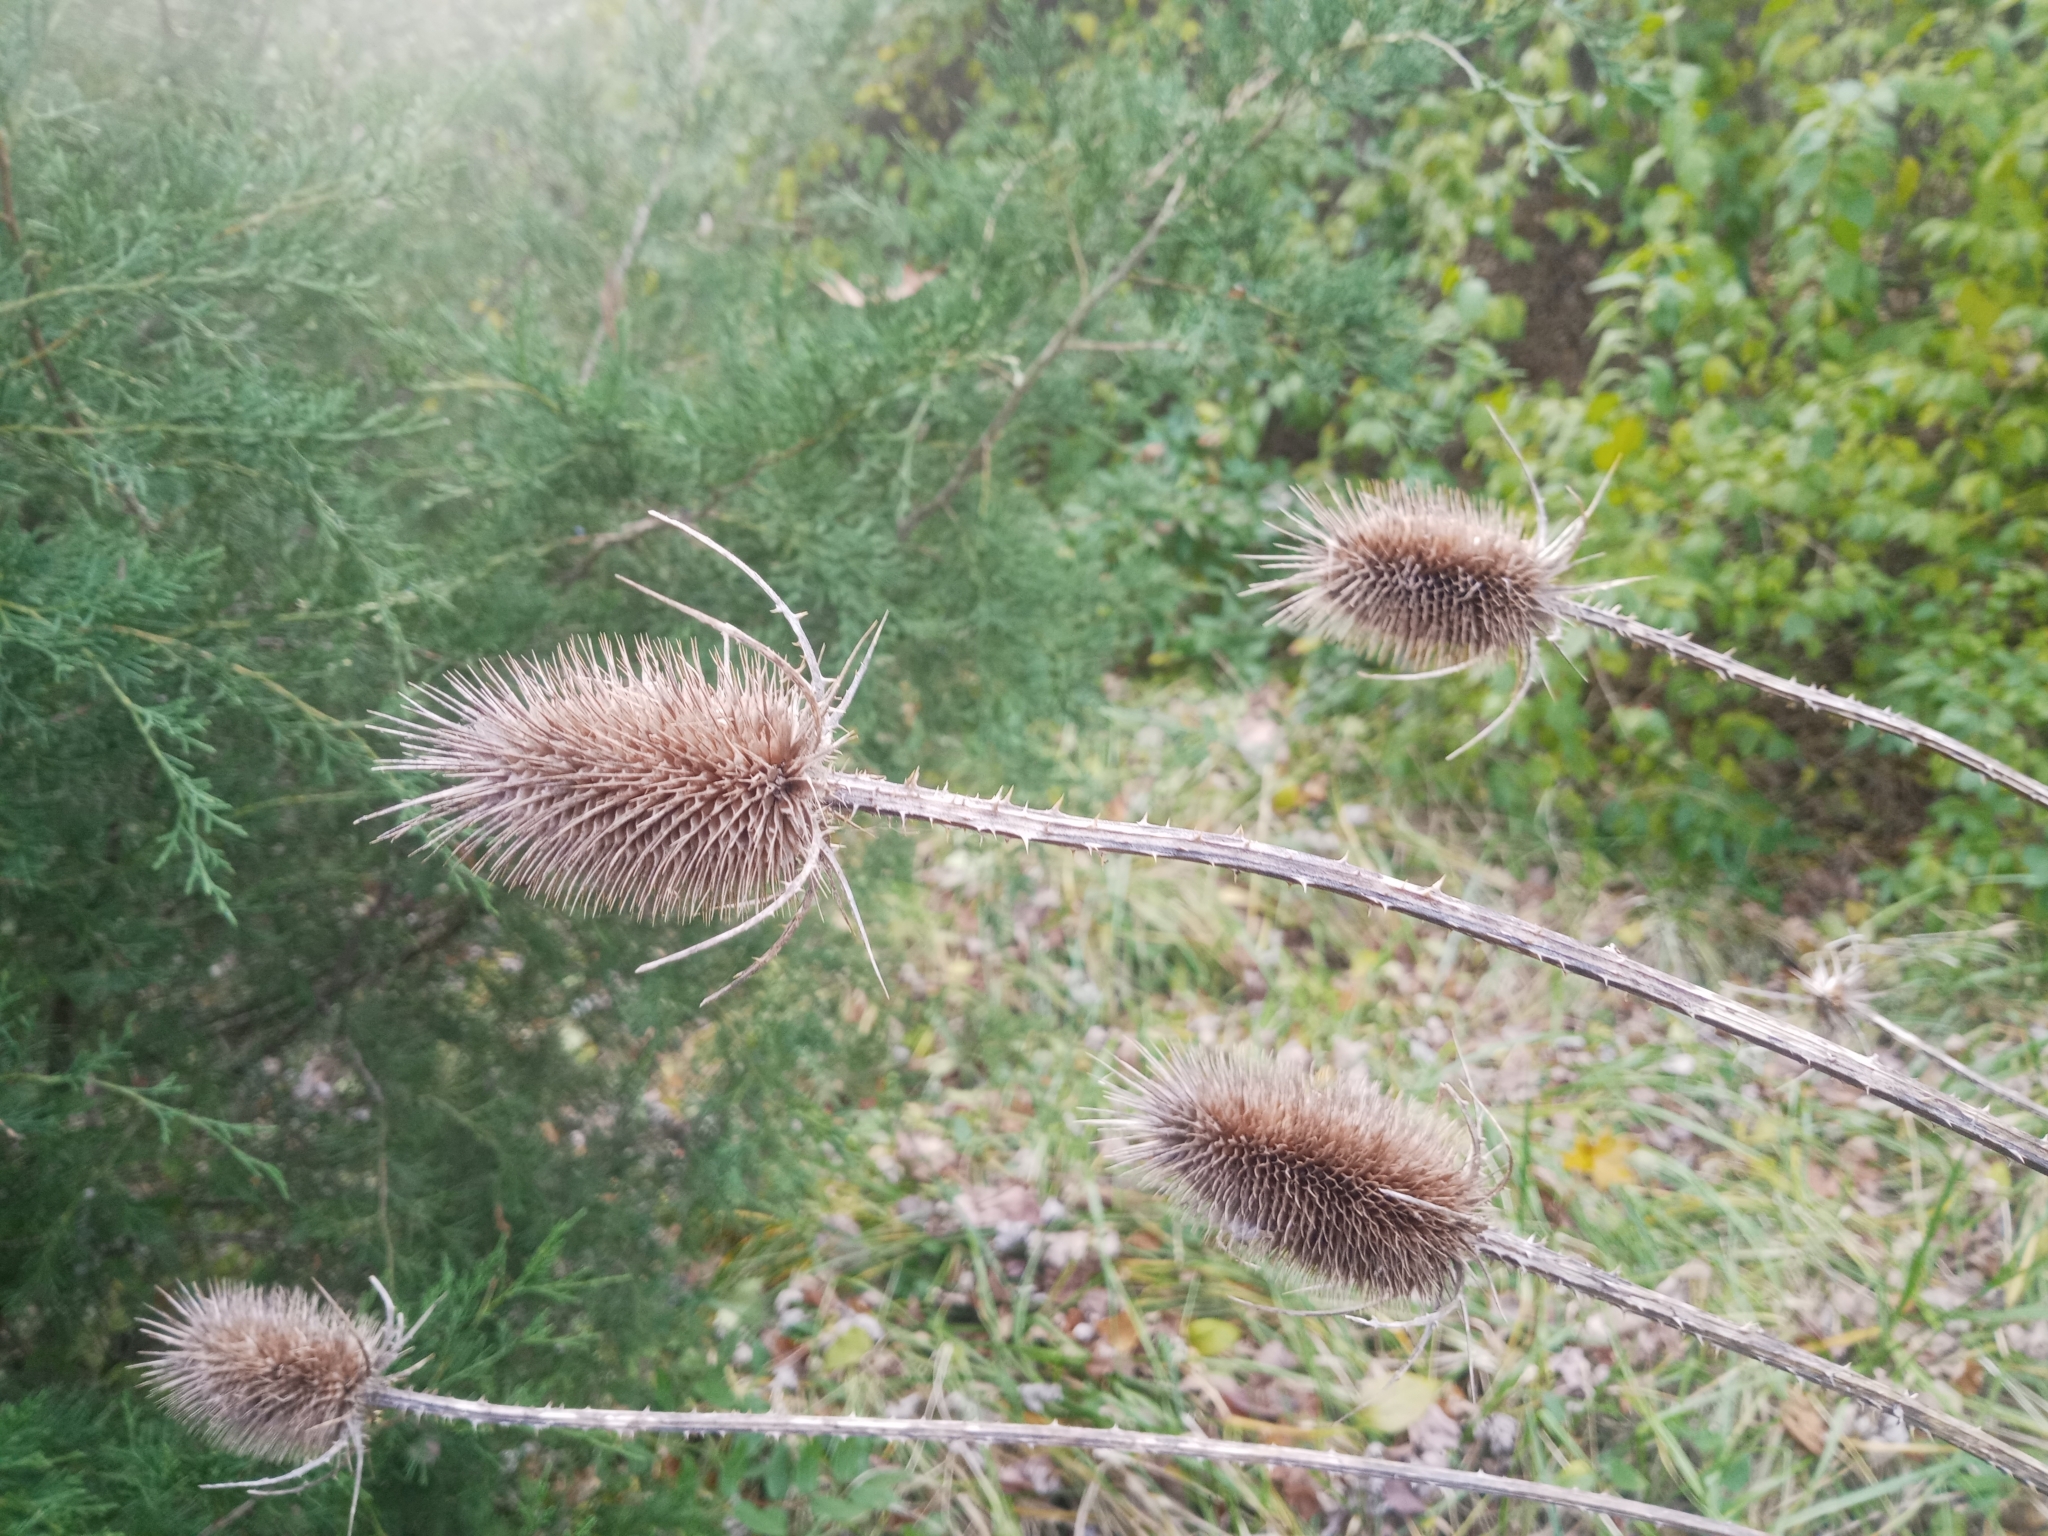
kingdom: Plantae
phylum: Tracheophyta
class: Magnoliopsida
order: Dipsacales
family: Caprifoliaceae
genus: Dipsacus
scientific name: Dipsacus fullonum
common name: Teasel
